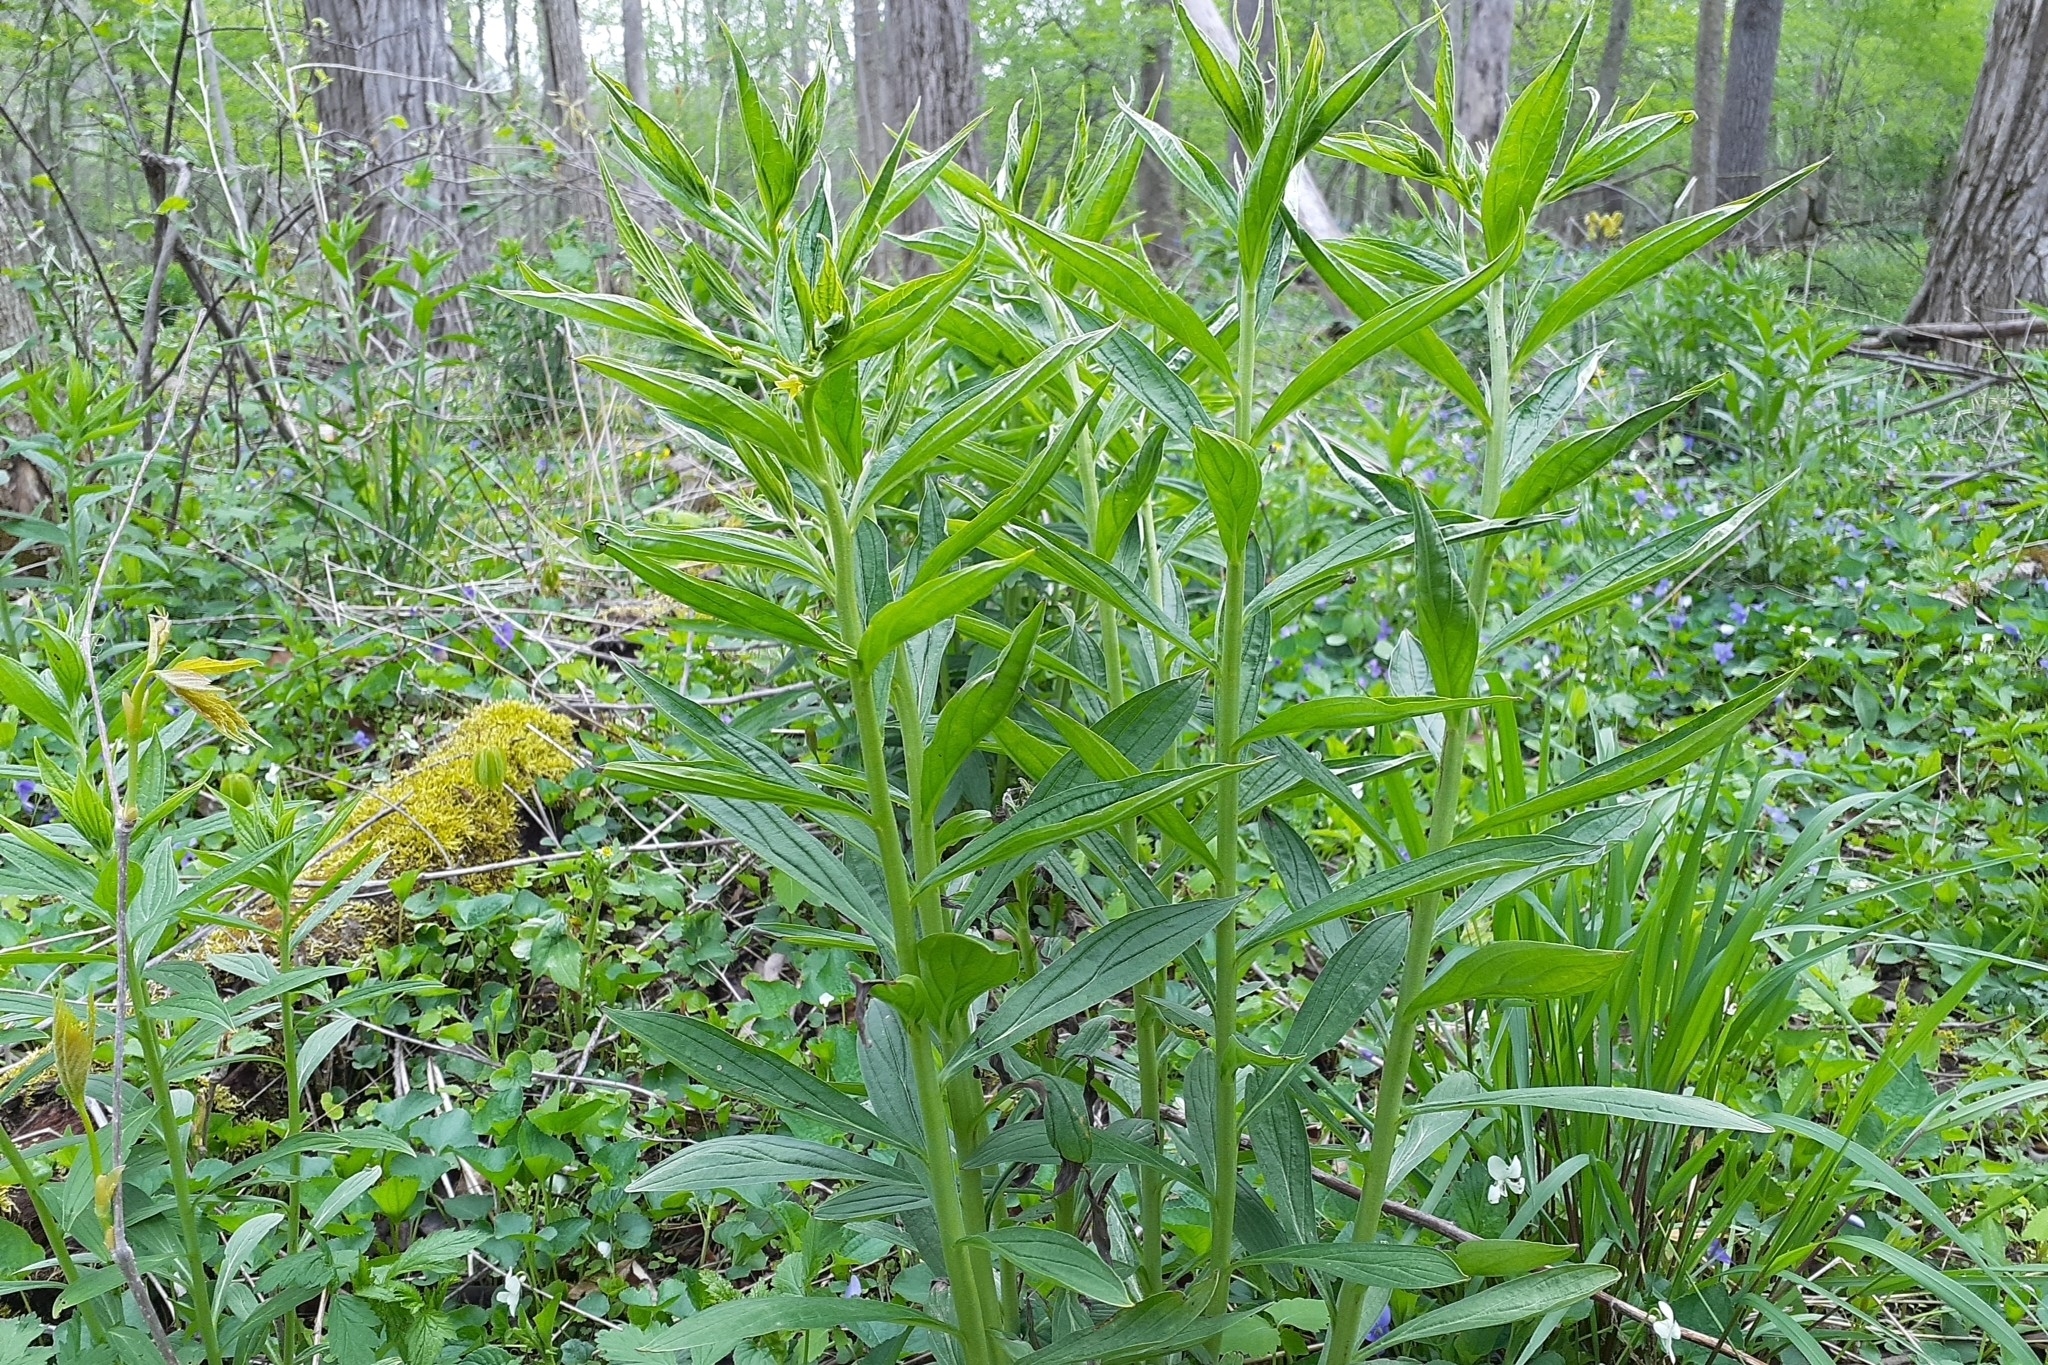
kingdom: Plantae
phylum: Tracheophyta
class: Magnoliopsida
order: Boraginales
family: Boraginaceae
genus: Lithospermum
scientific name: Lithospermum latifolium
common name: American gromwell
